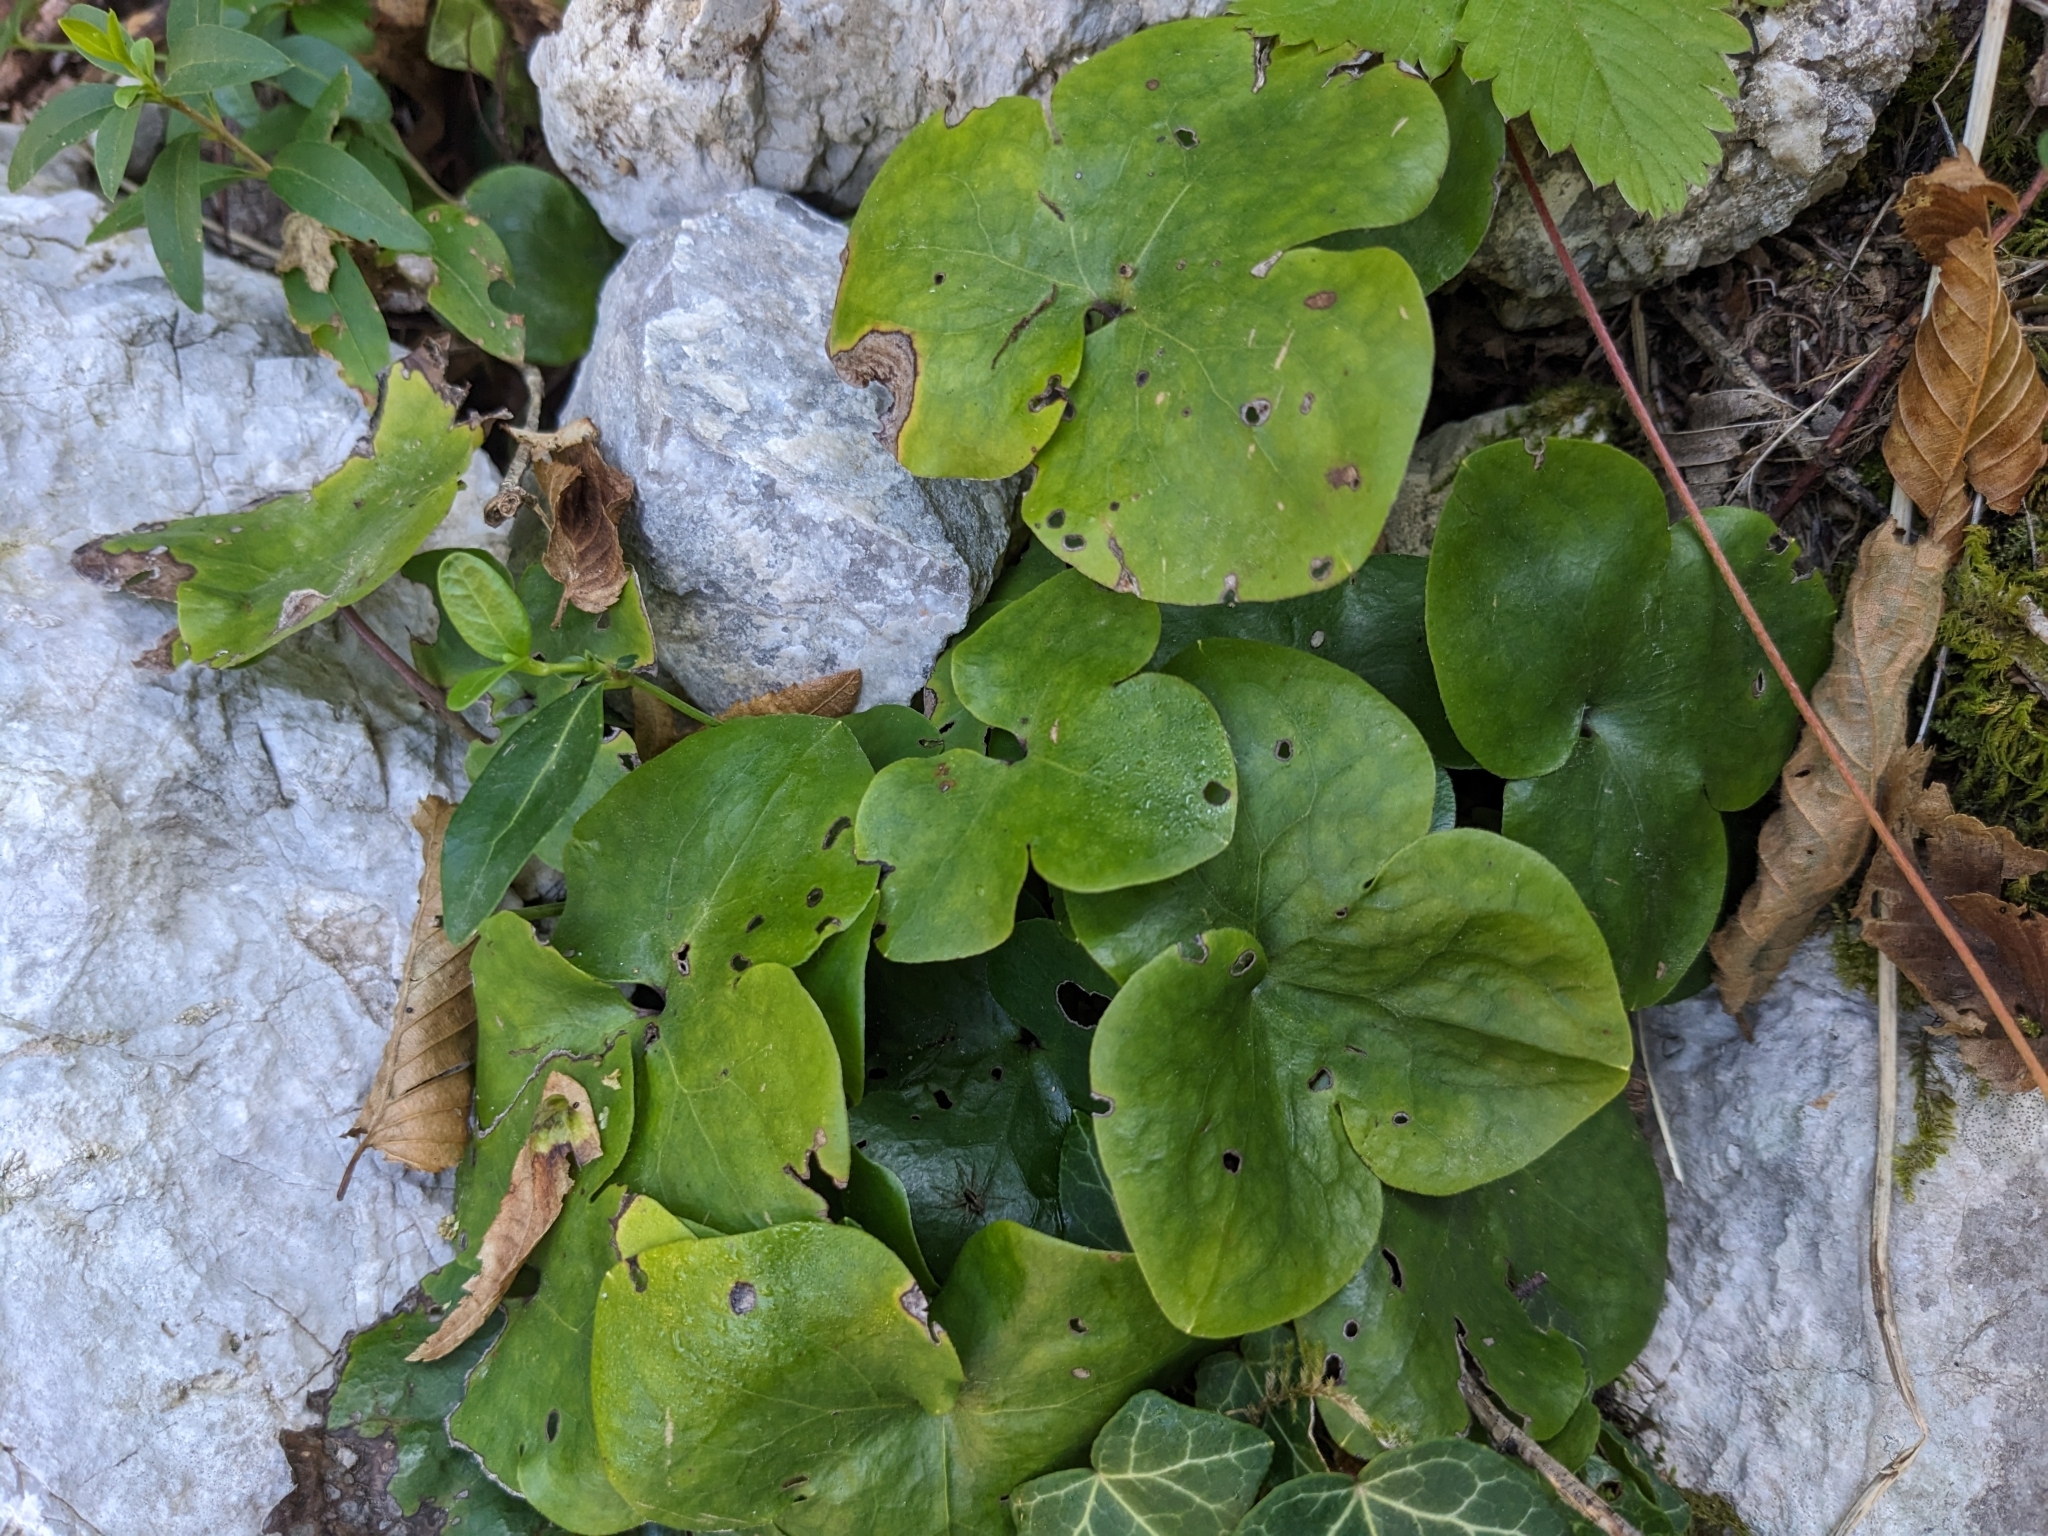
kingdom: Plantae
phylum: Tracheophyta
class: Magnoliopsida
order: Ranunculales
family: Ranunculaceae
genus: Hepatica
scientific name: Hepatica nobilis
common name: Liverleaf
